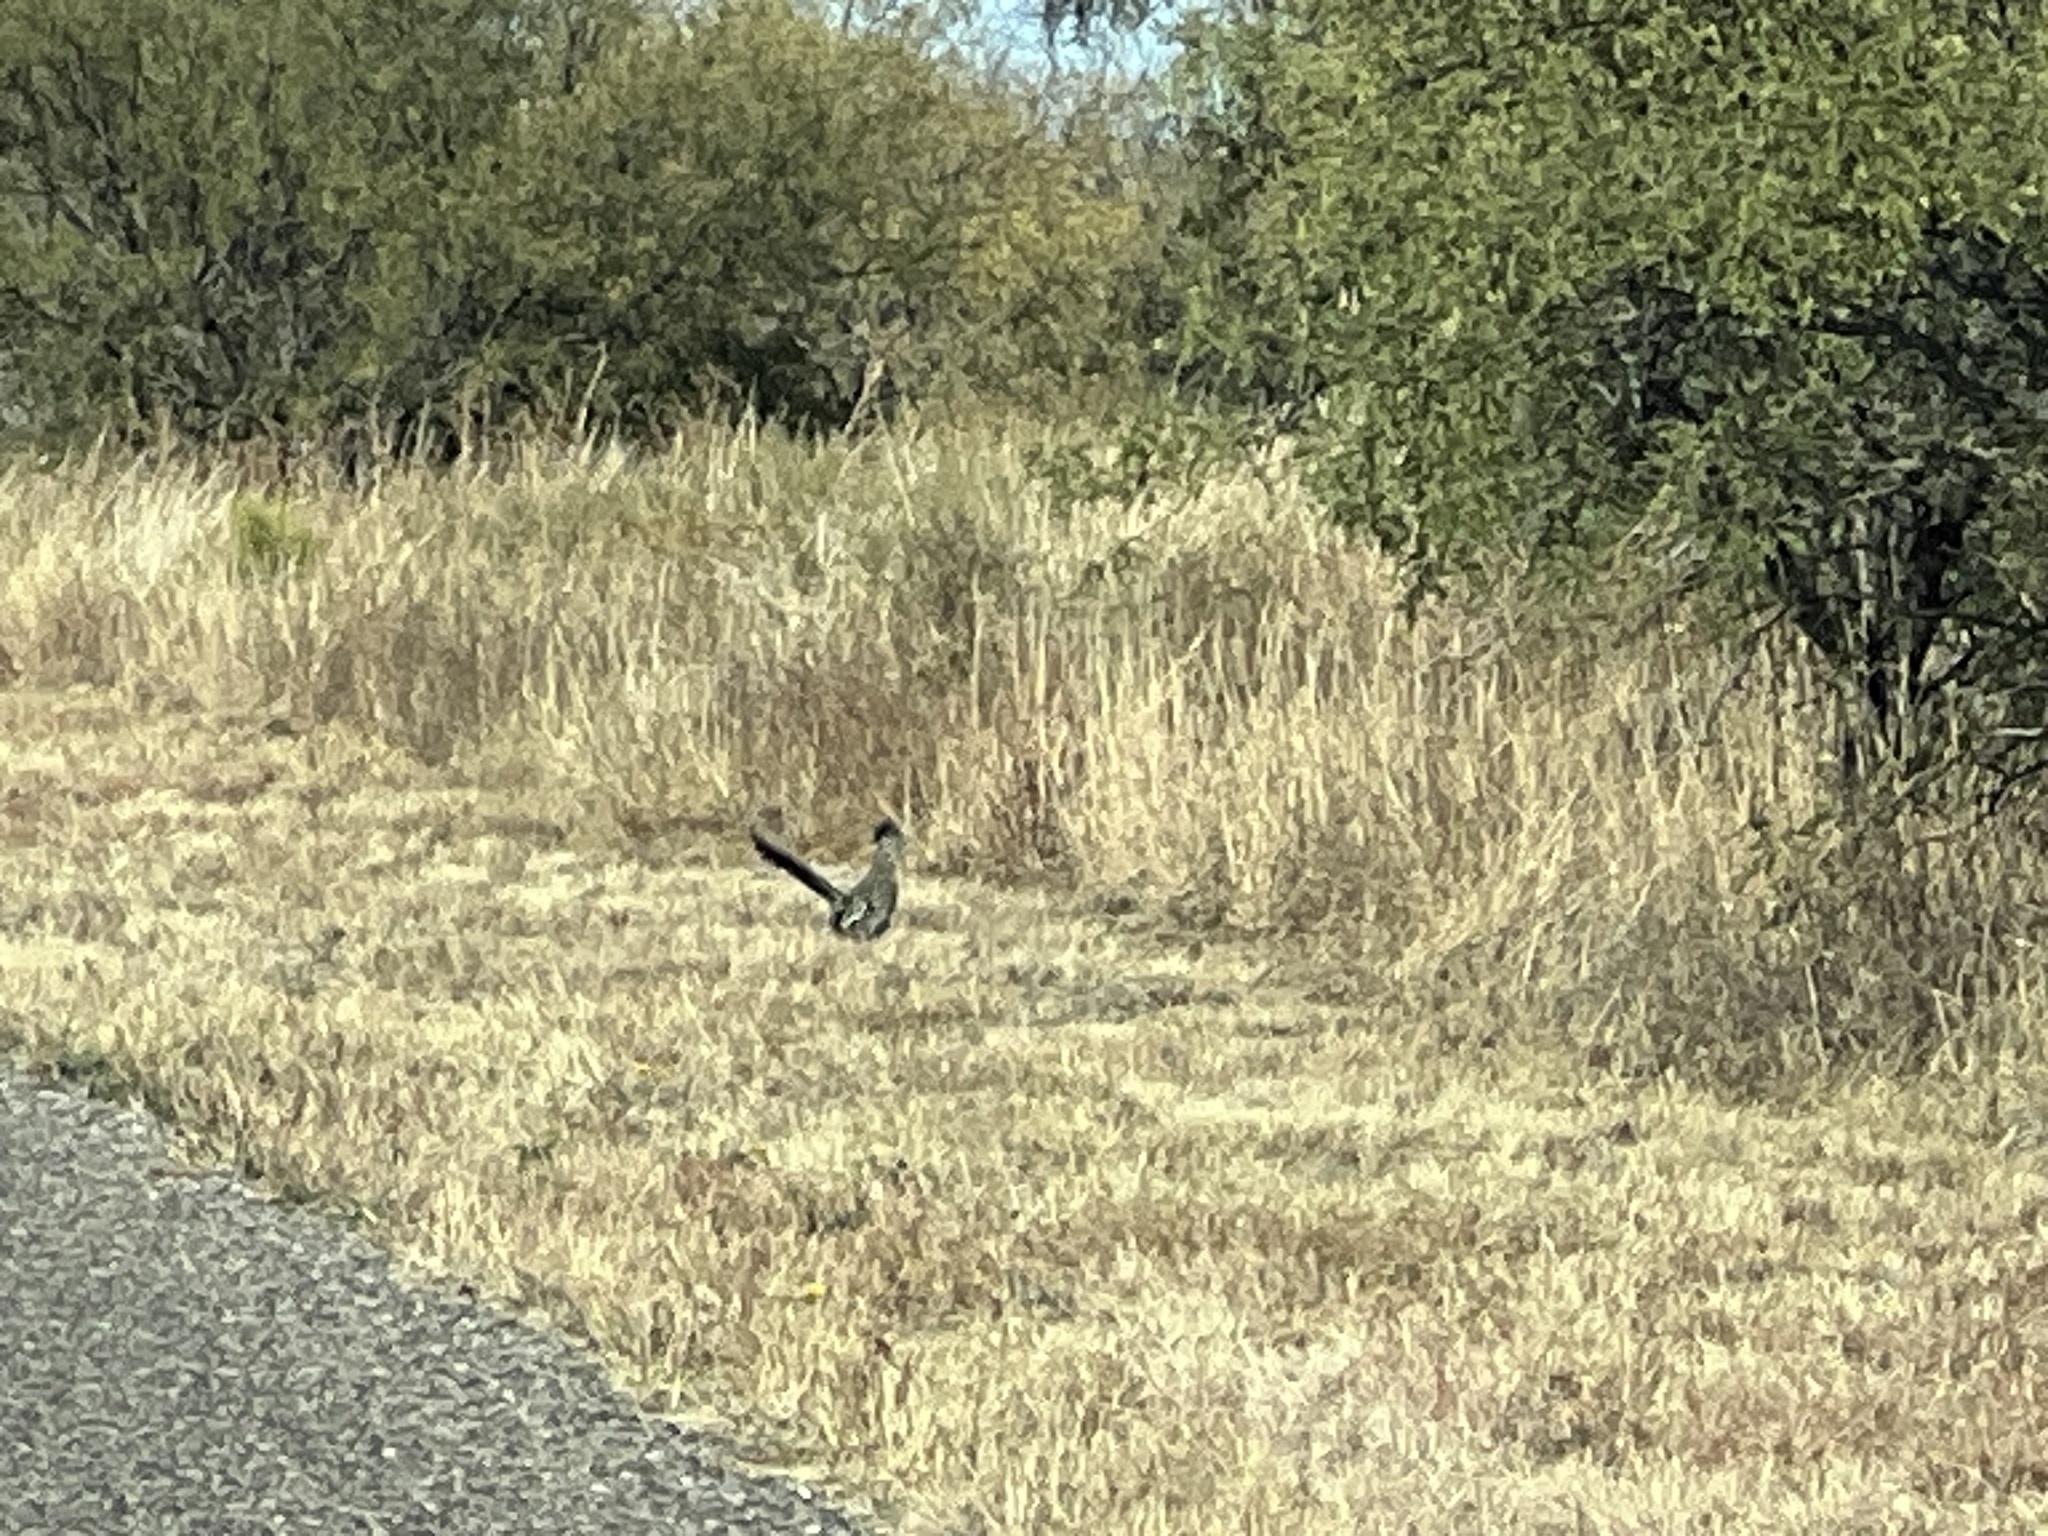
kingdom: Animalia
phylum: Chordata
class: Aves
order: Cuculiformes
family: Cuculidae
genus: Geococcyx
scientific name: Geococcyx californianus
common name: Greater roadrunner
